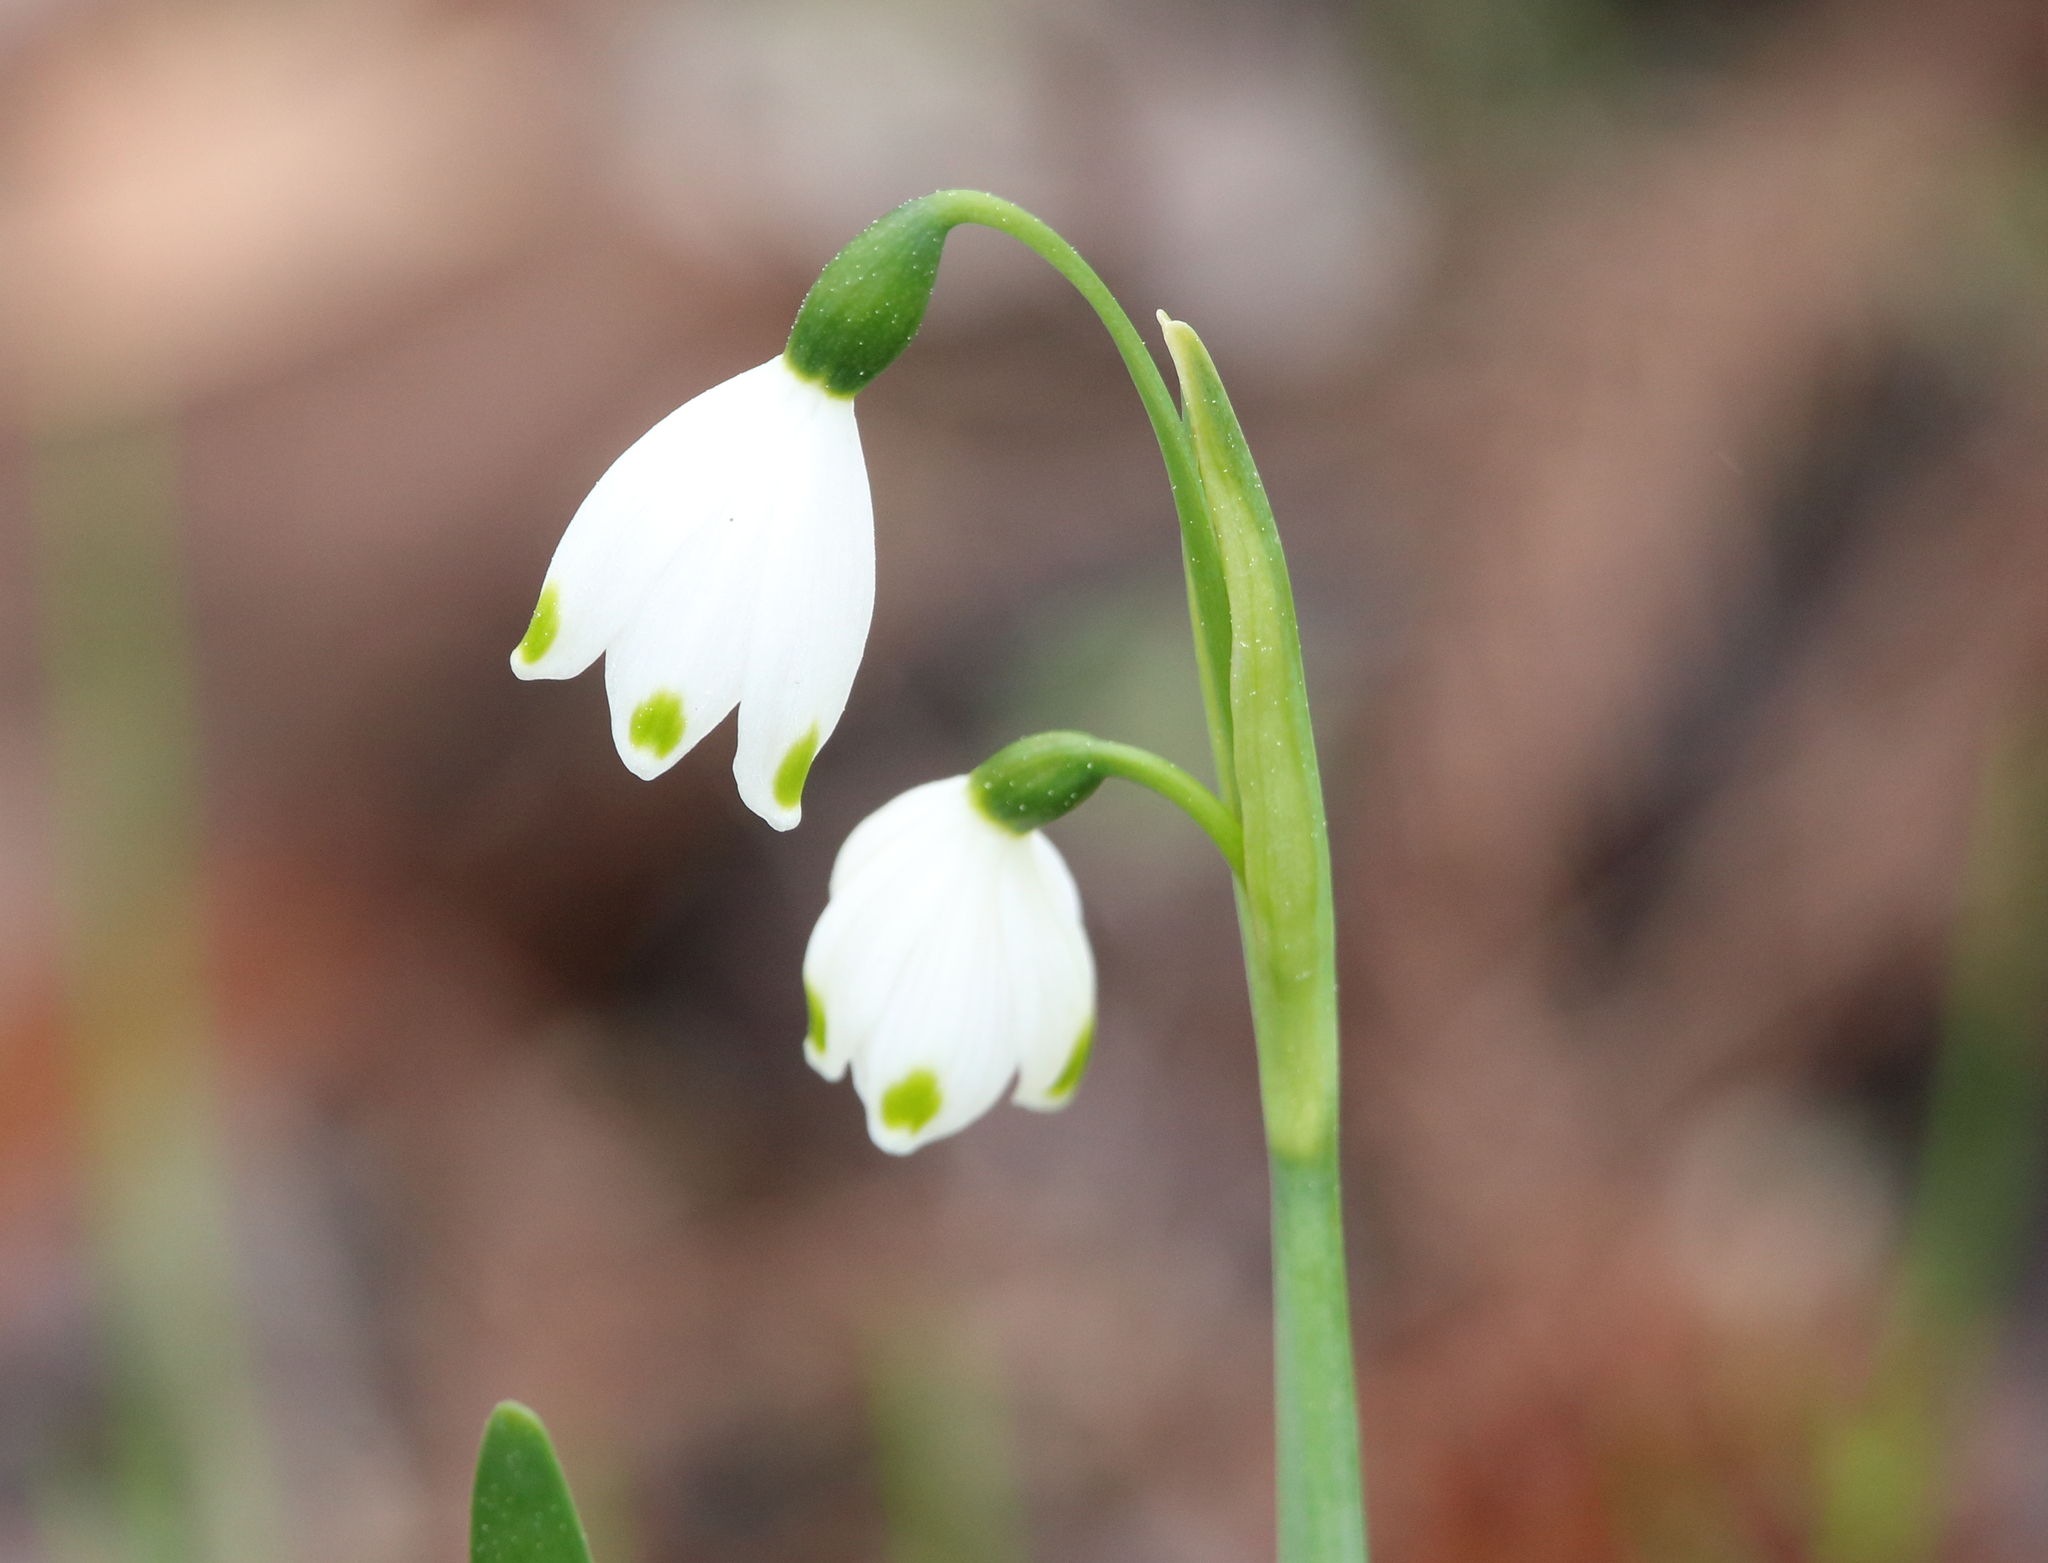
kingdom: Plantae
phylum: Tracheophyta
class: Liliopsida
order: Asparagales
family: Amaryllidaceae
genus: Leucojum
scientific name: Leucojum aestivum
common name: Summer snowflake
